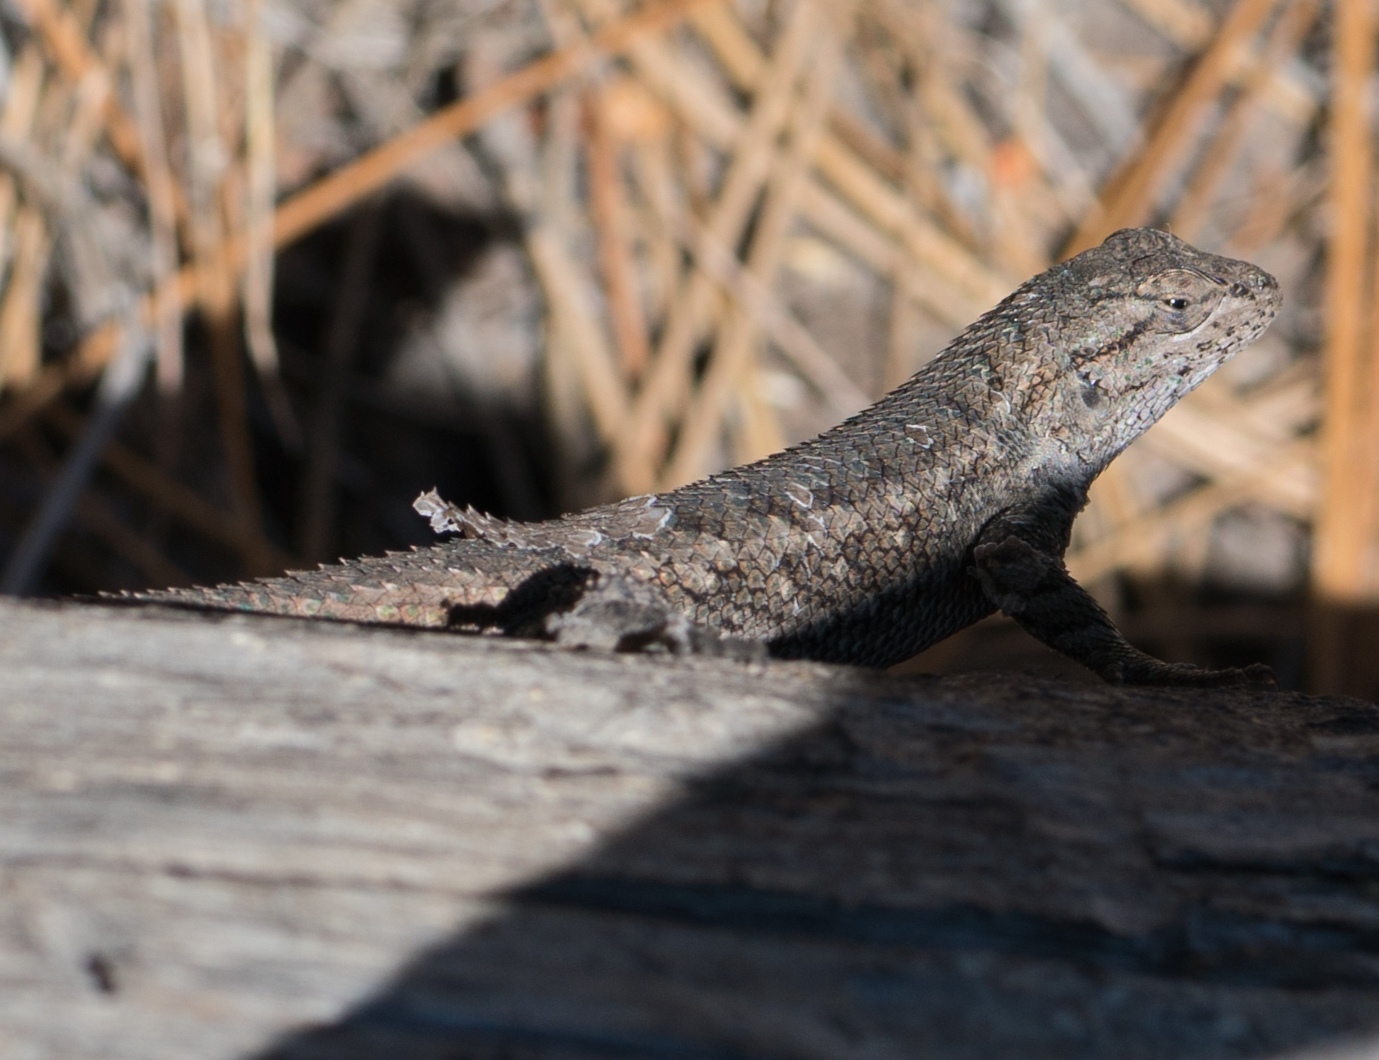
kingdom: Animalia
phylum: Chordata
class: Squamata
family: Phrynosomatidae
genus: Sceloporus
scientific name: Sceloporus occidentalis
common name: Western fence lizard
